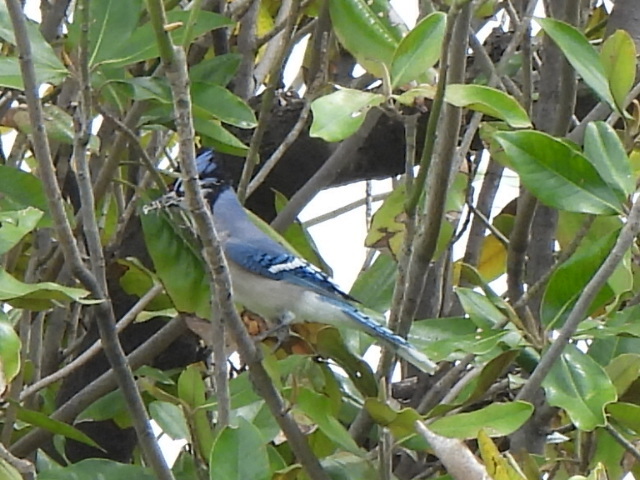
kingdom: Animalia
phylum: Chordata
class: Aves
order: Passeriformes
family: Corvidae
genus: Cyanocitta
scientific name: Cyanocitta cristata
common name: Blue jay
